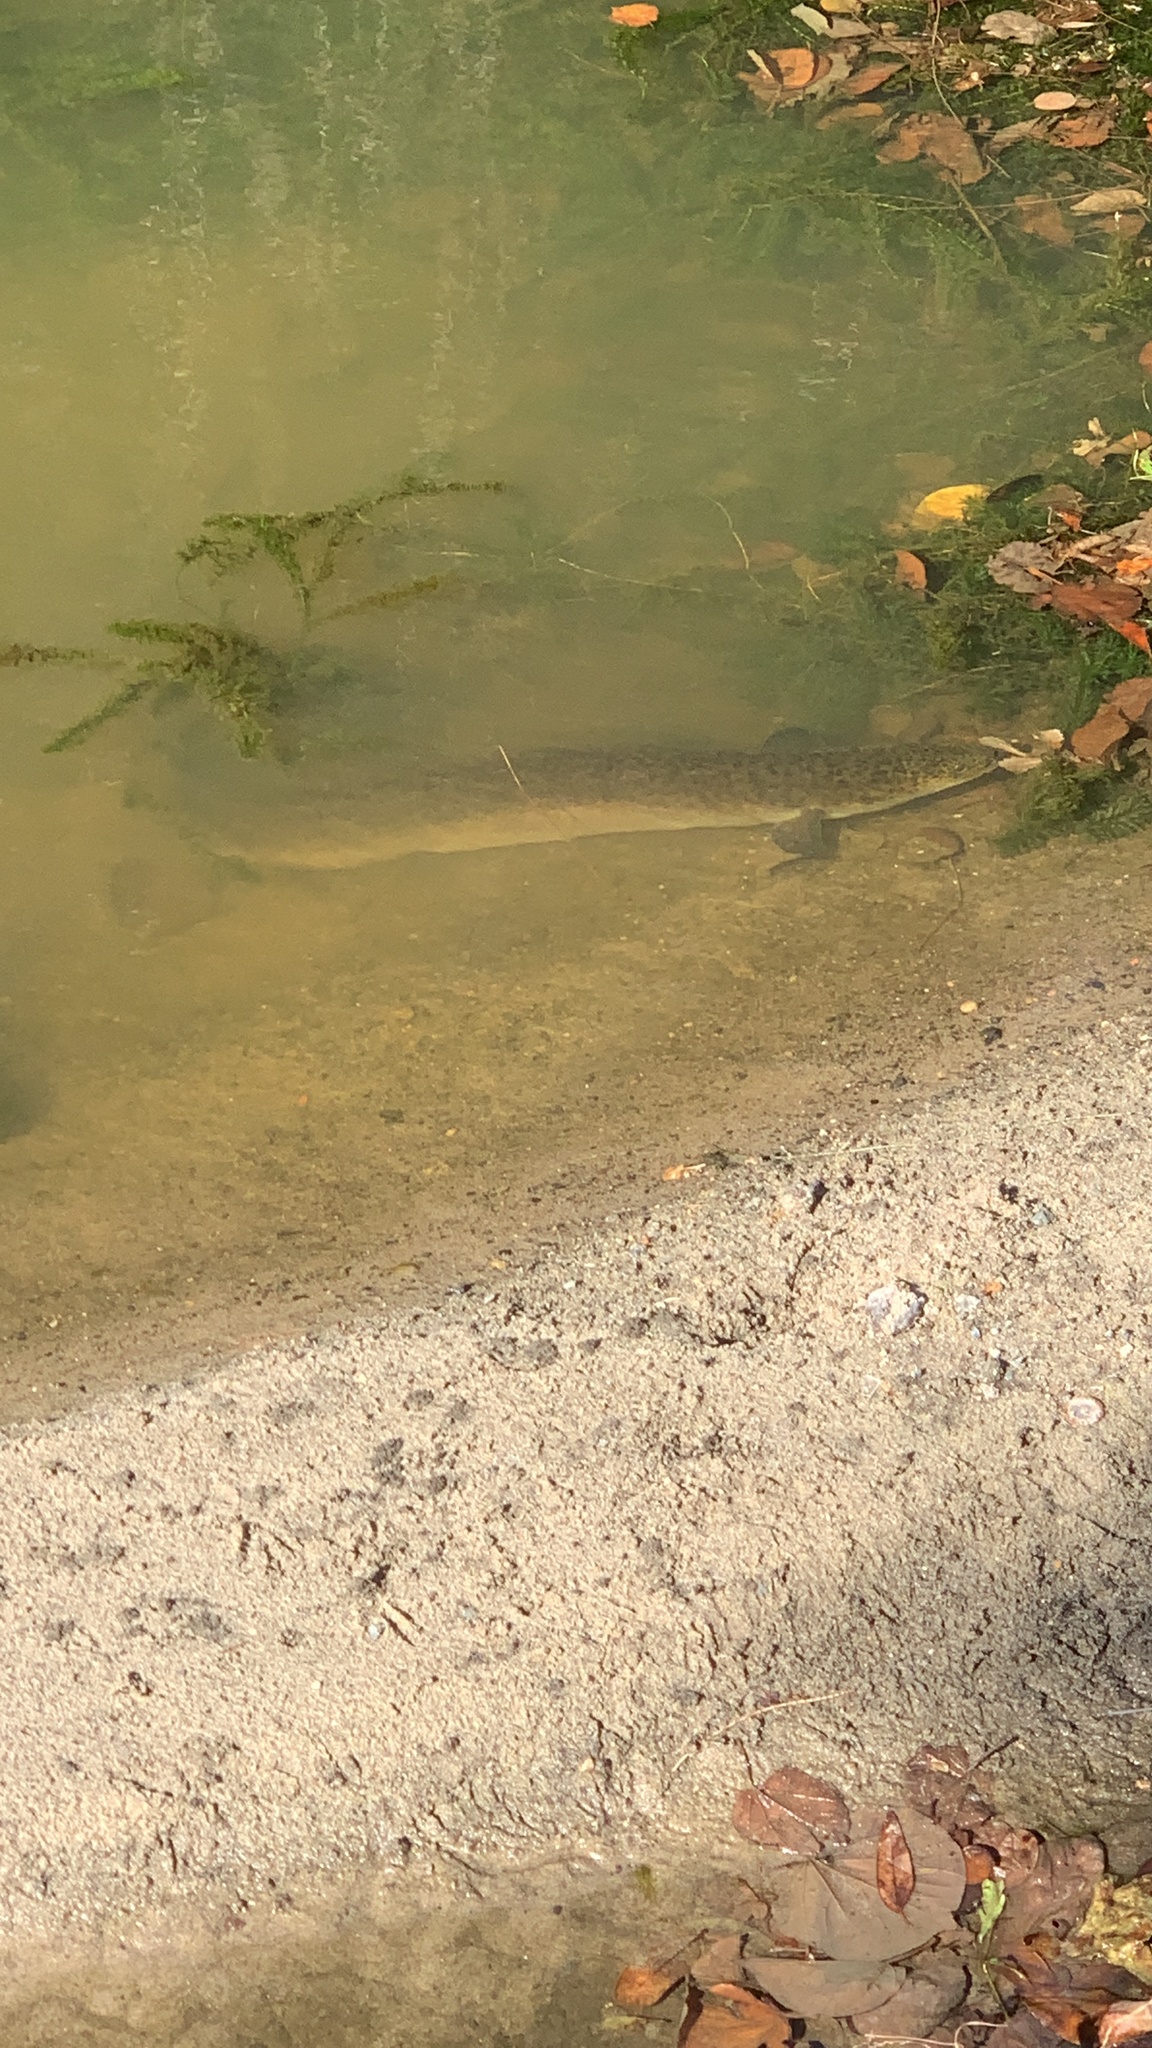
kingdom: Animalia
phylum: Chordata
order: Anguilliformes
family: Anguillidae
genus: Anguilla
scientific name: Anguilla reinhardtii
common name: Longfin eel
